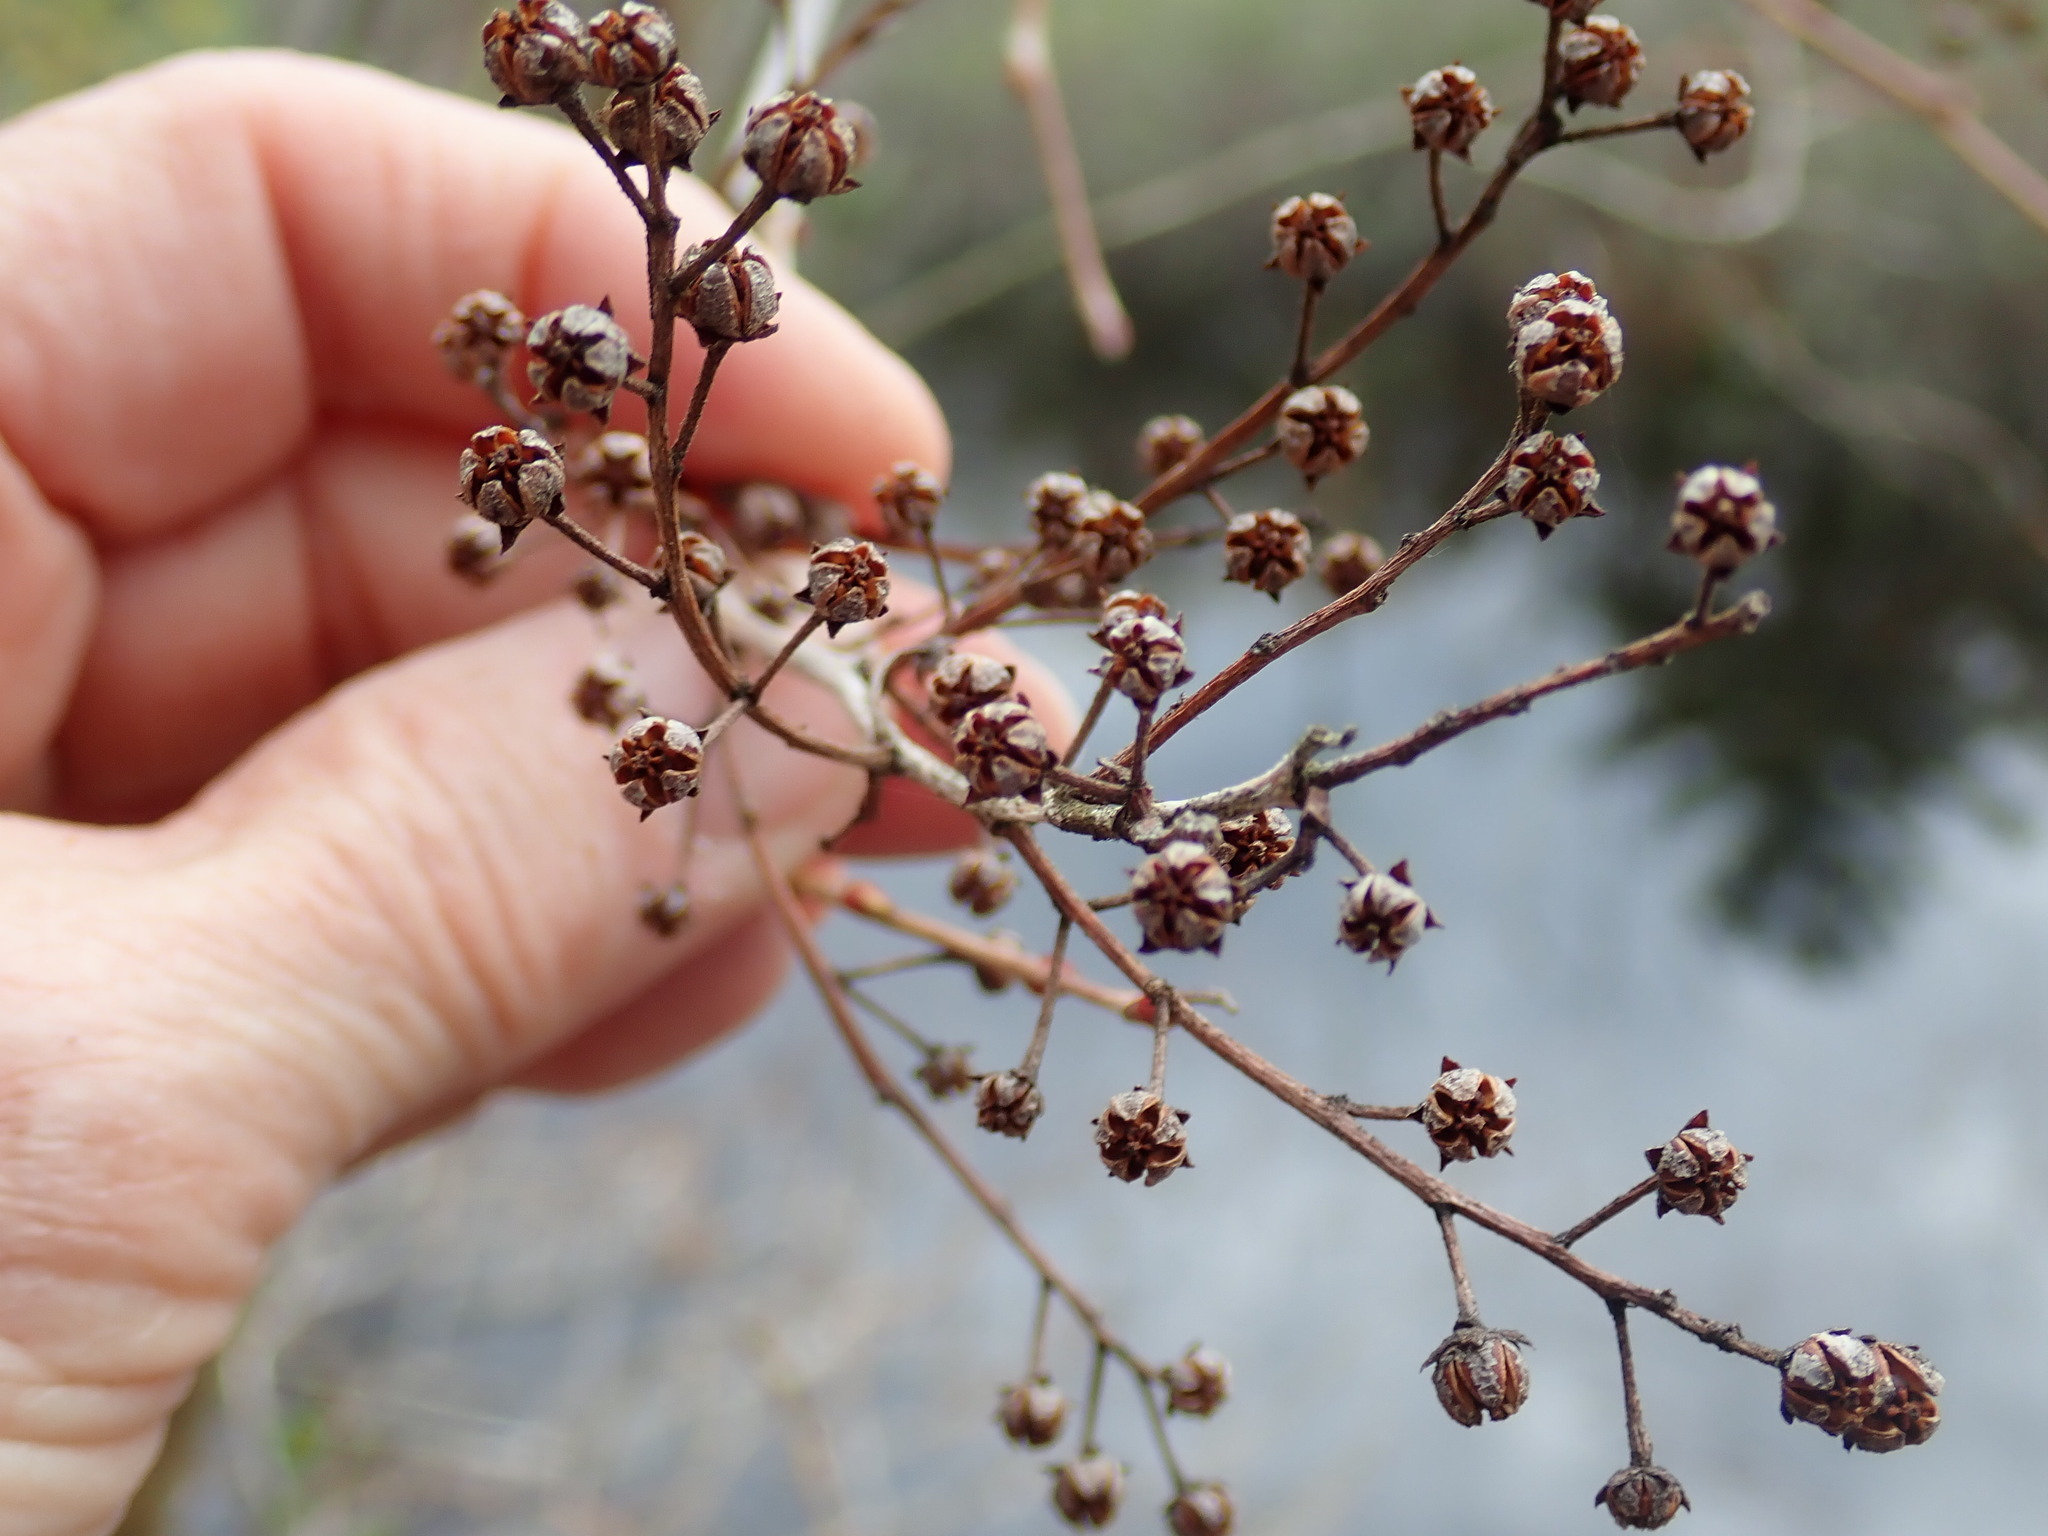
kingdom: Plantae
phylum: Tracheophyta
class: Magnoliopsida
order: Ericales
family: Ericaceae
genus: Lyonia
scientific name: Lyonia ligustrina
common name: Maleberry
